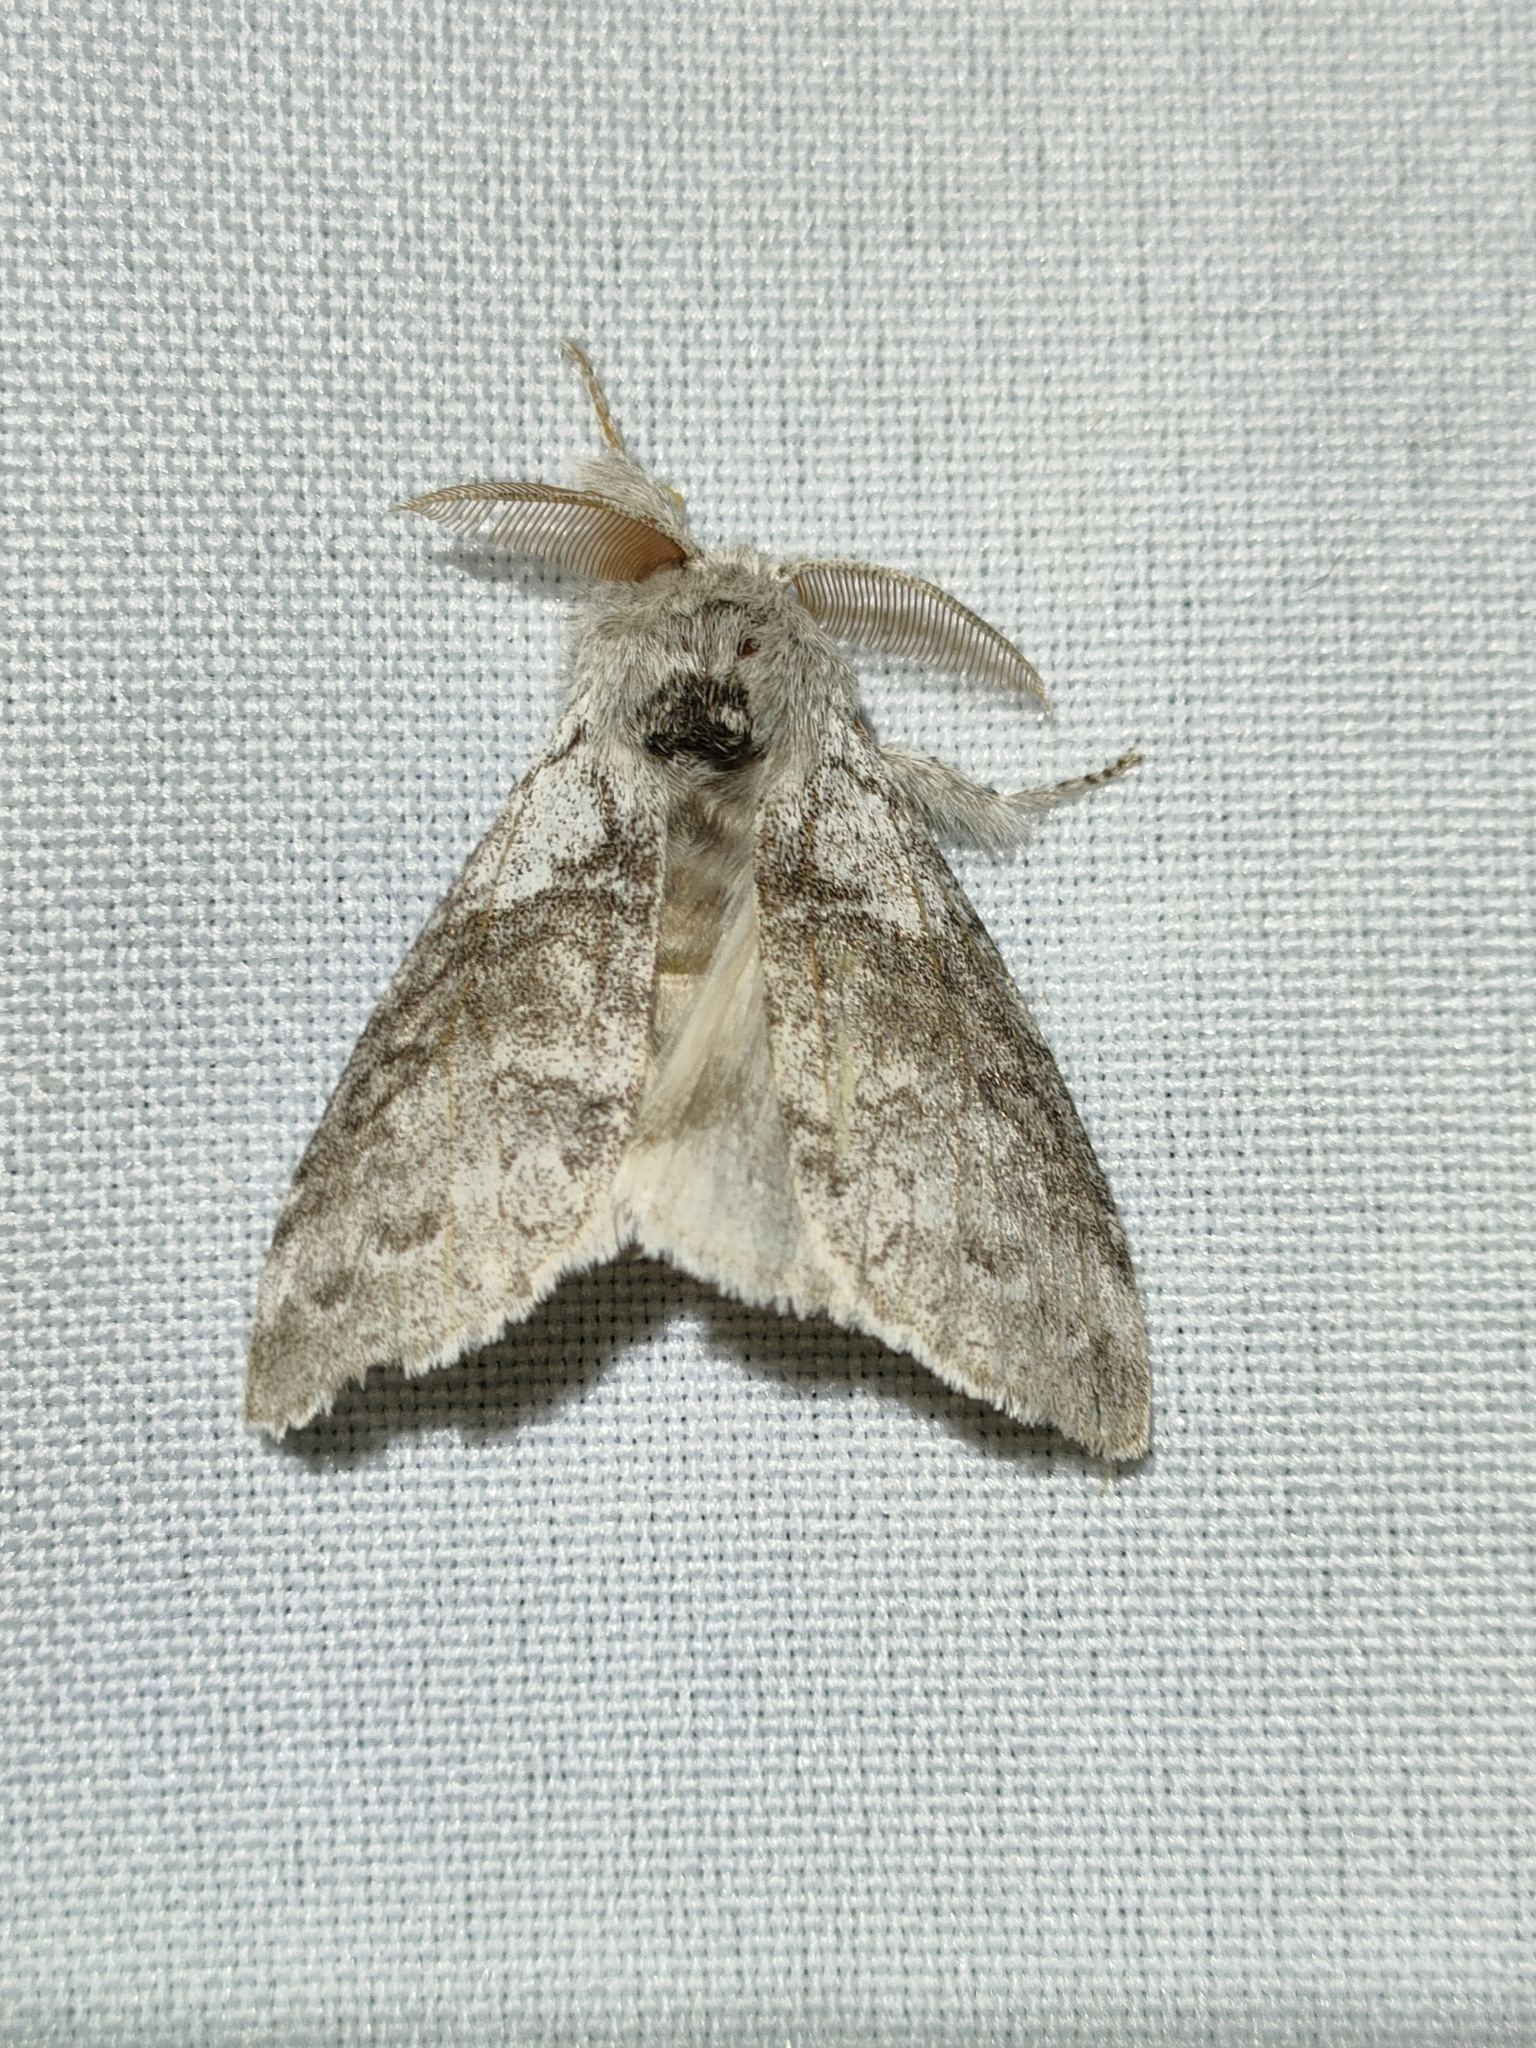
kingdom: Animalia
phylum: Arthropoda
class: Insecta
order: Lepidoptera
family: Erebidae
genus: Calliteara
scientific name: Calliteara pudibunda
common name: Pale tussock
